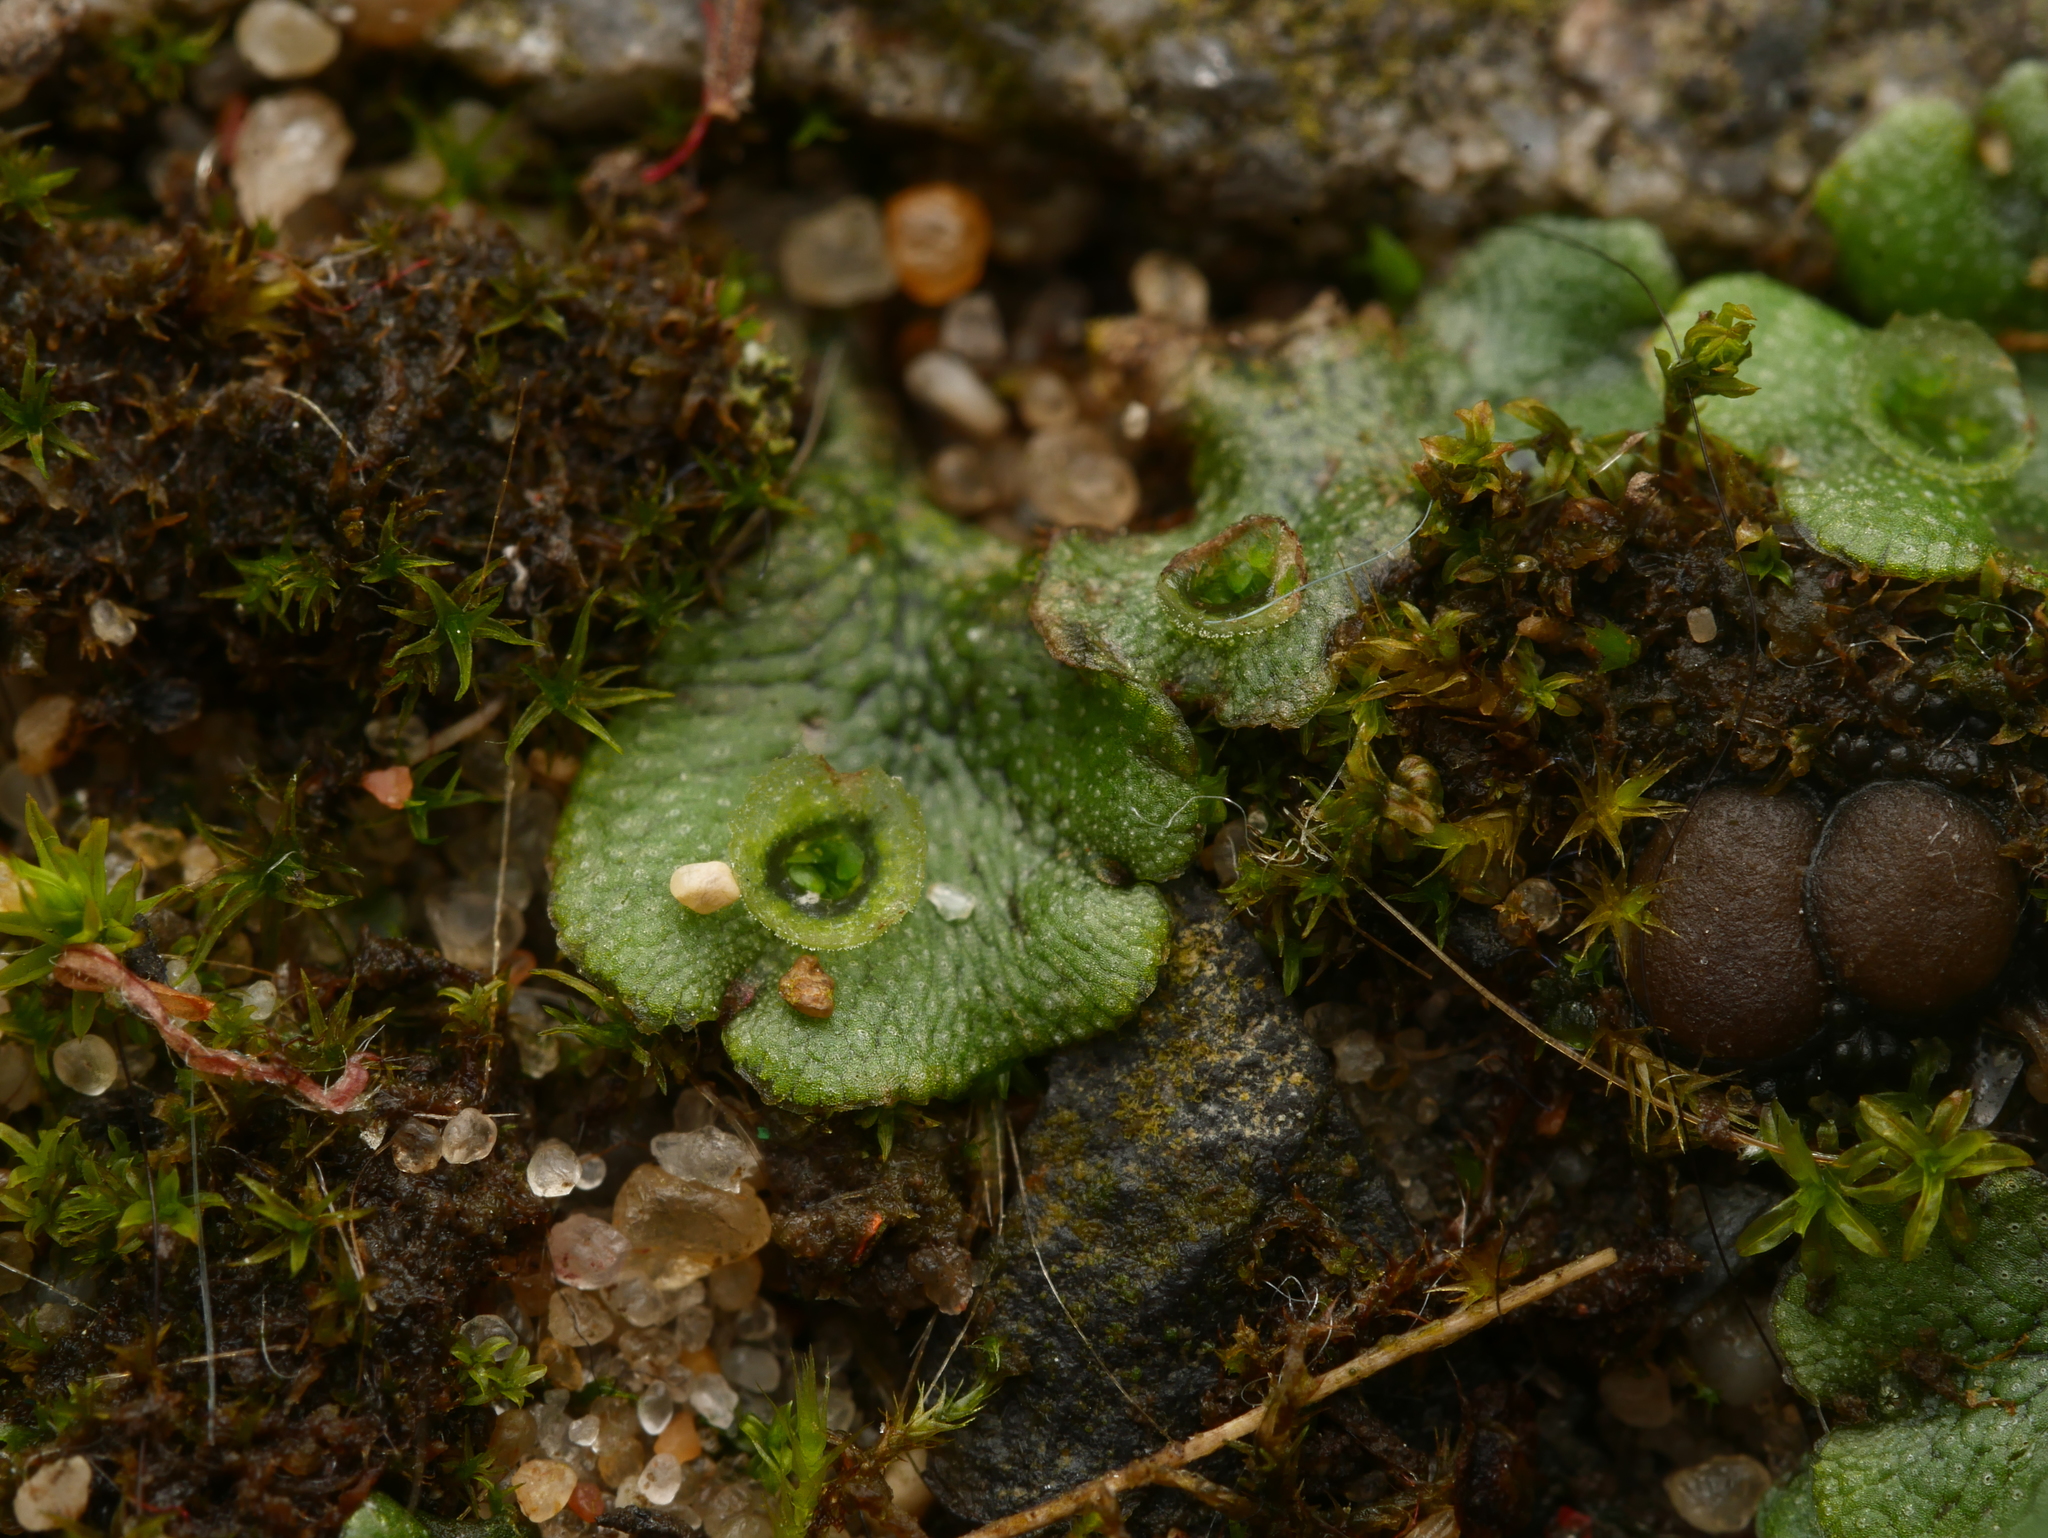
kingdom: Plantae
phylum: Marchantiophyta
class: Marchantiopsida
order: Marchantiales
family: Marchantiaceae
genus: Marchantia
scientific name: Marchantia polymorpha
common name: Common liverwort
